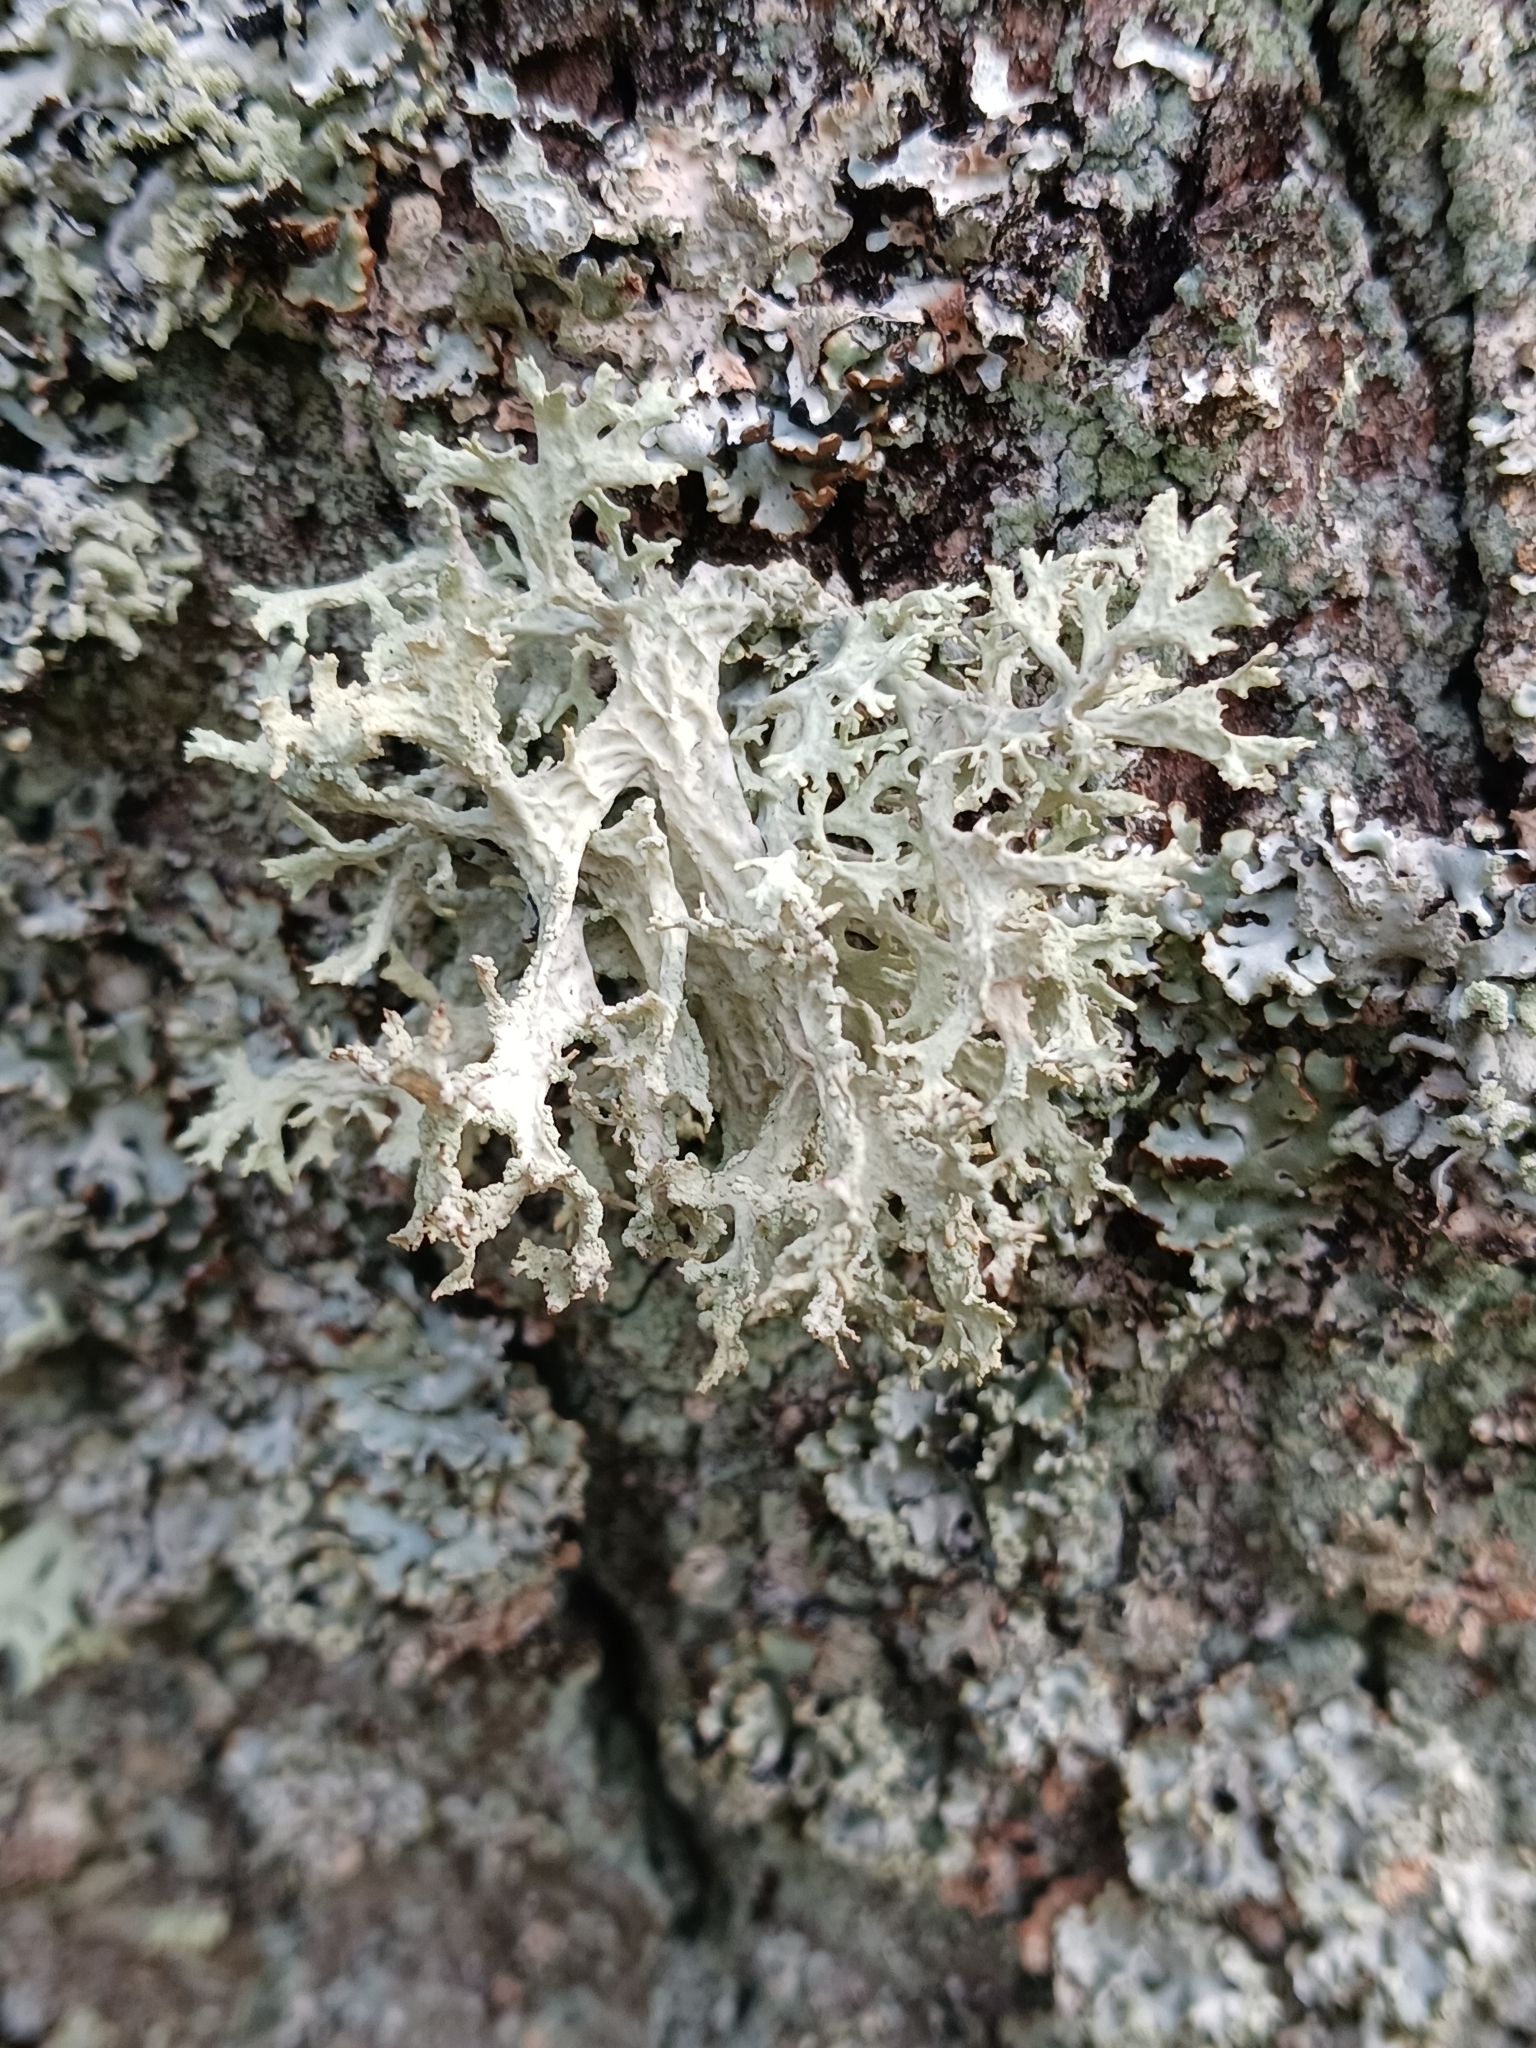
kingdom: Fungi
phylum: Ascomycota
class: Lecanoromycetes
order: Lecanorales
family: Parmeliaceae
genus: Evernia
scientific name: Evernia prunastri
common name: Oak moss
